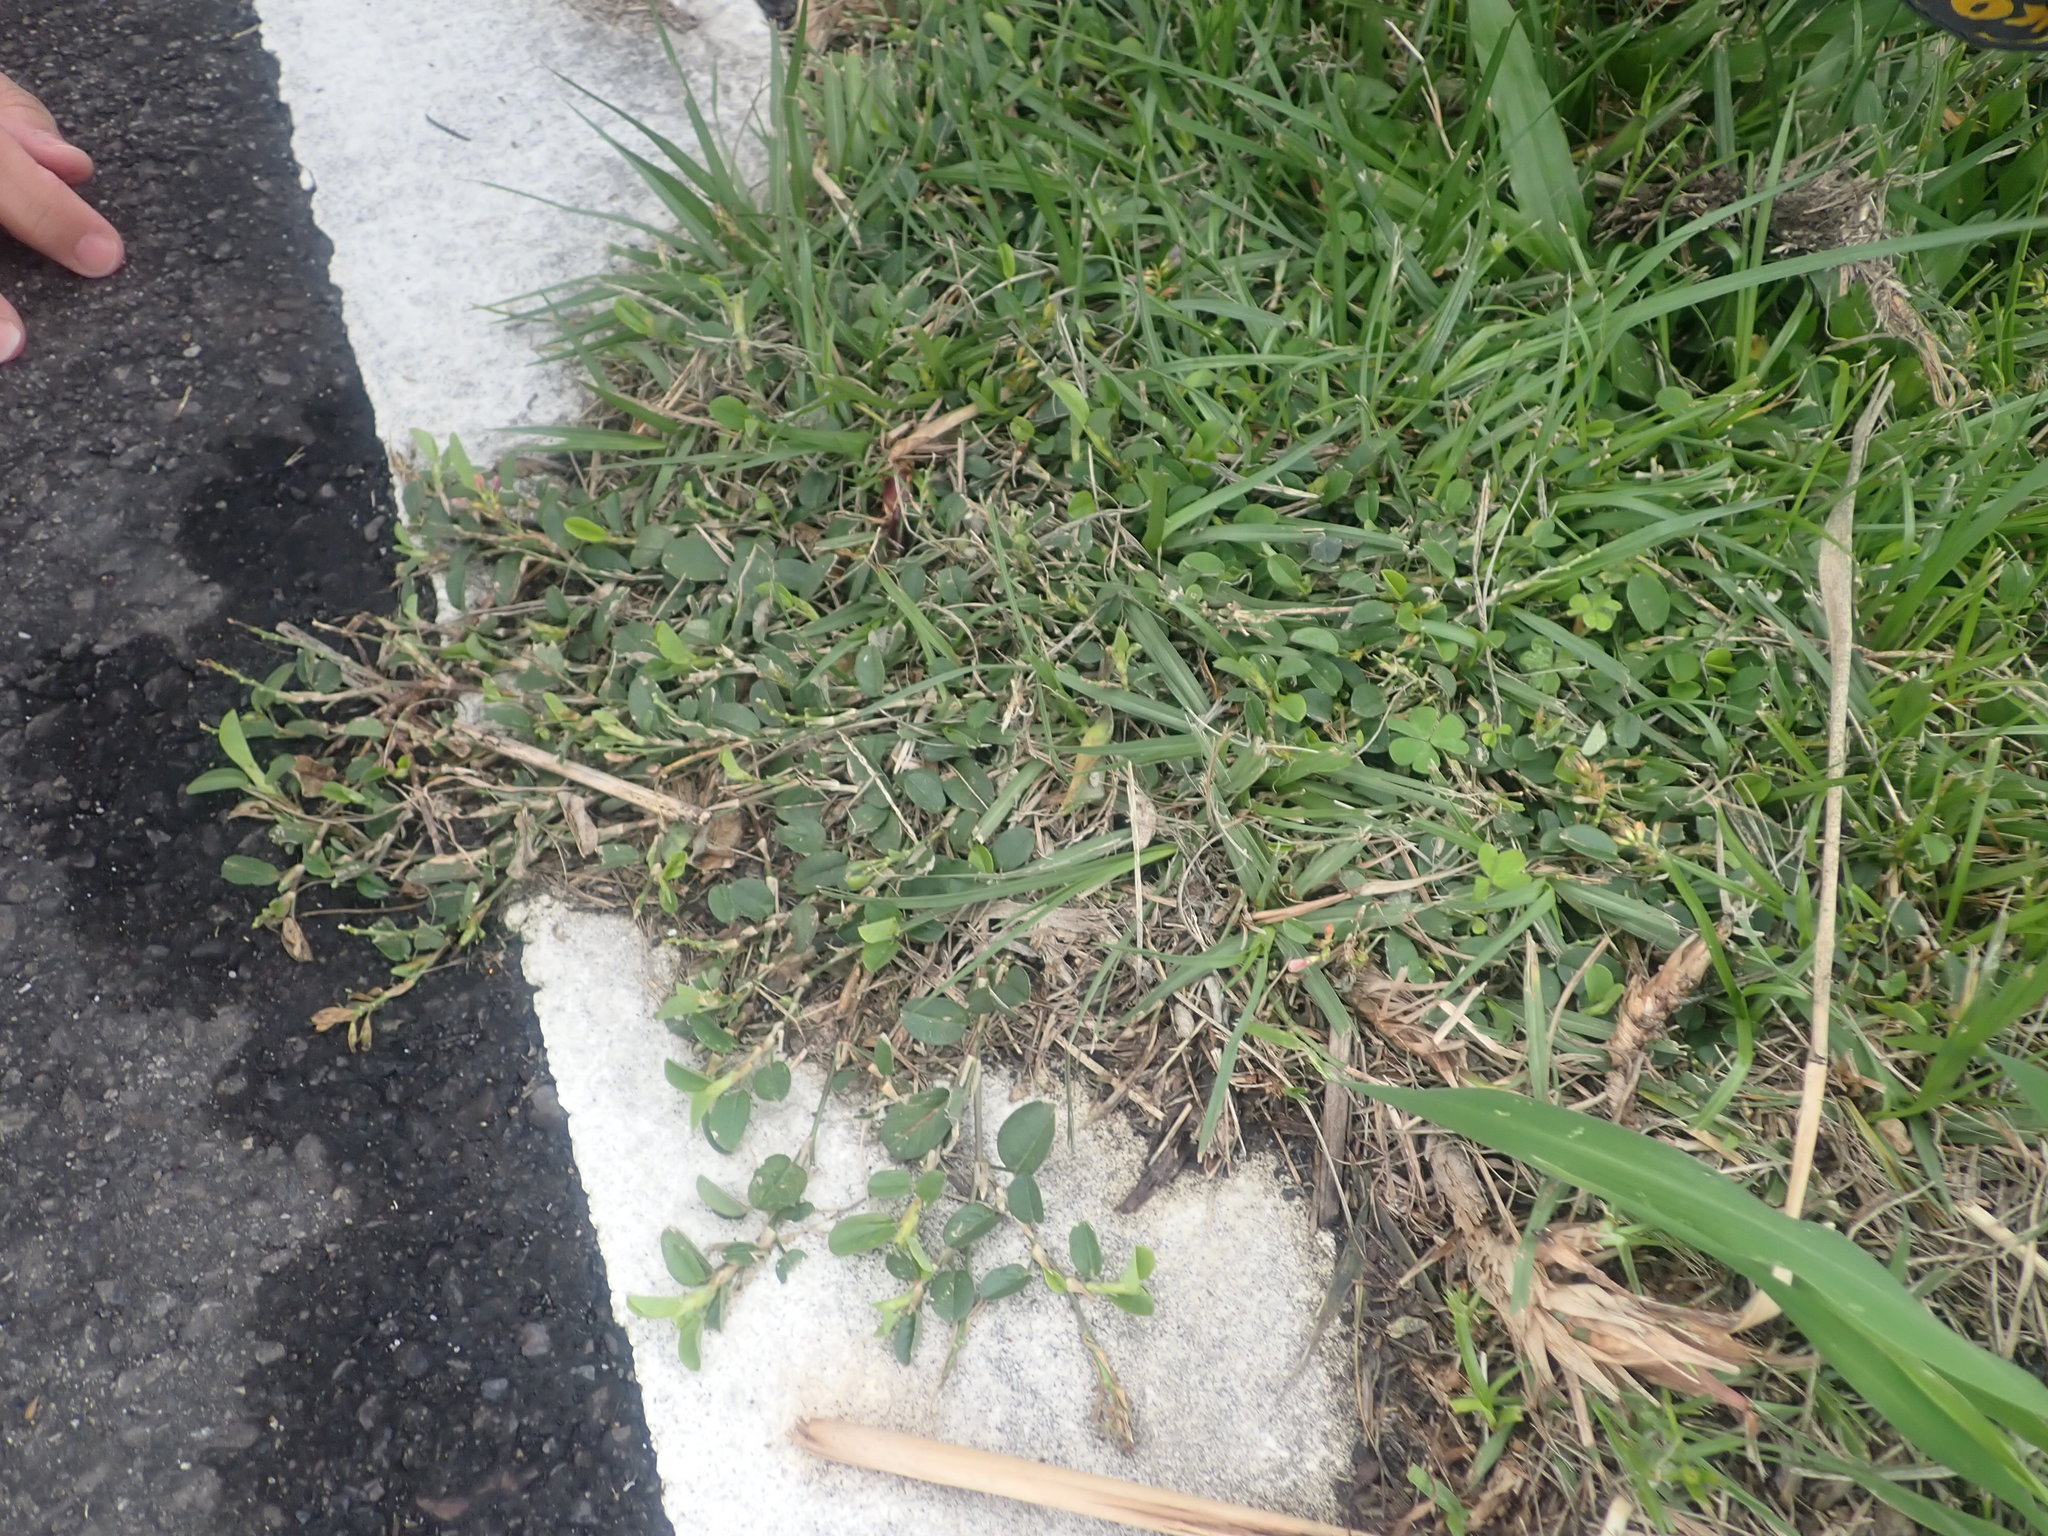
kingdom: Plantae
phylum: Tracheophyta
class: Magnoliopsida
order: Fabales
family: Fabaceae
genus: Alysicarpus
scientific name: Alysicarpus vaginalis
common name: White moneywort
